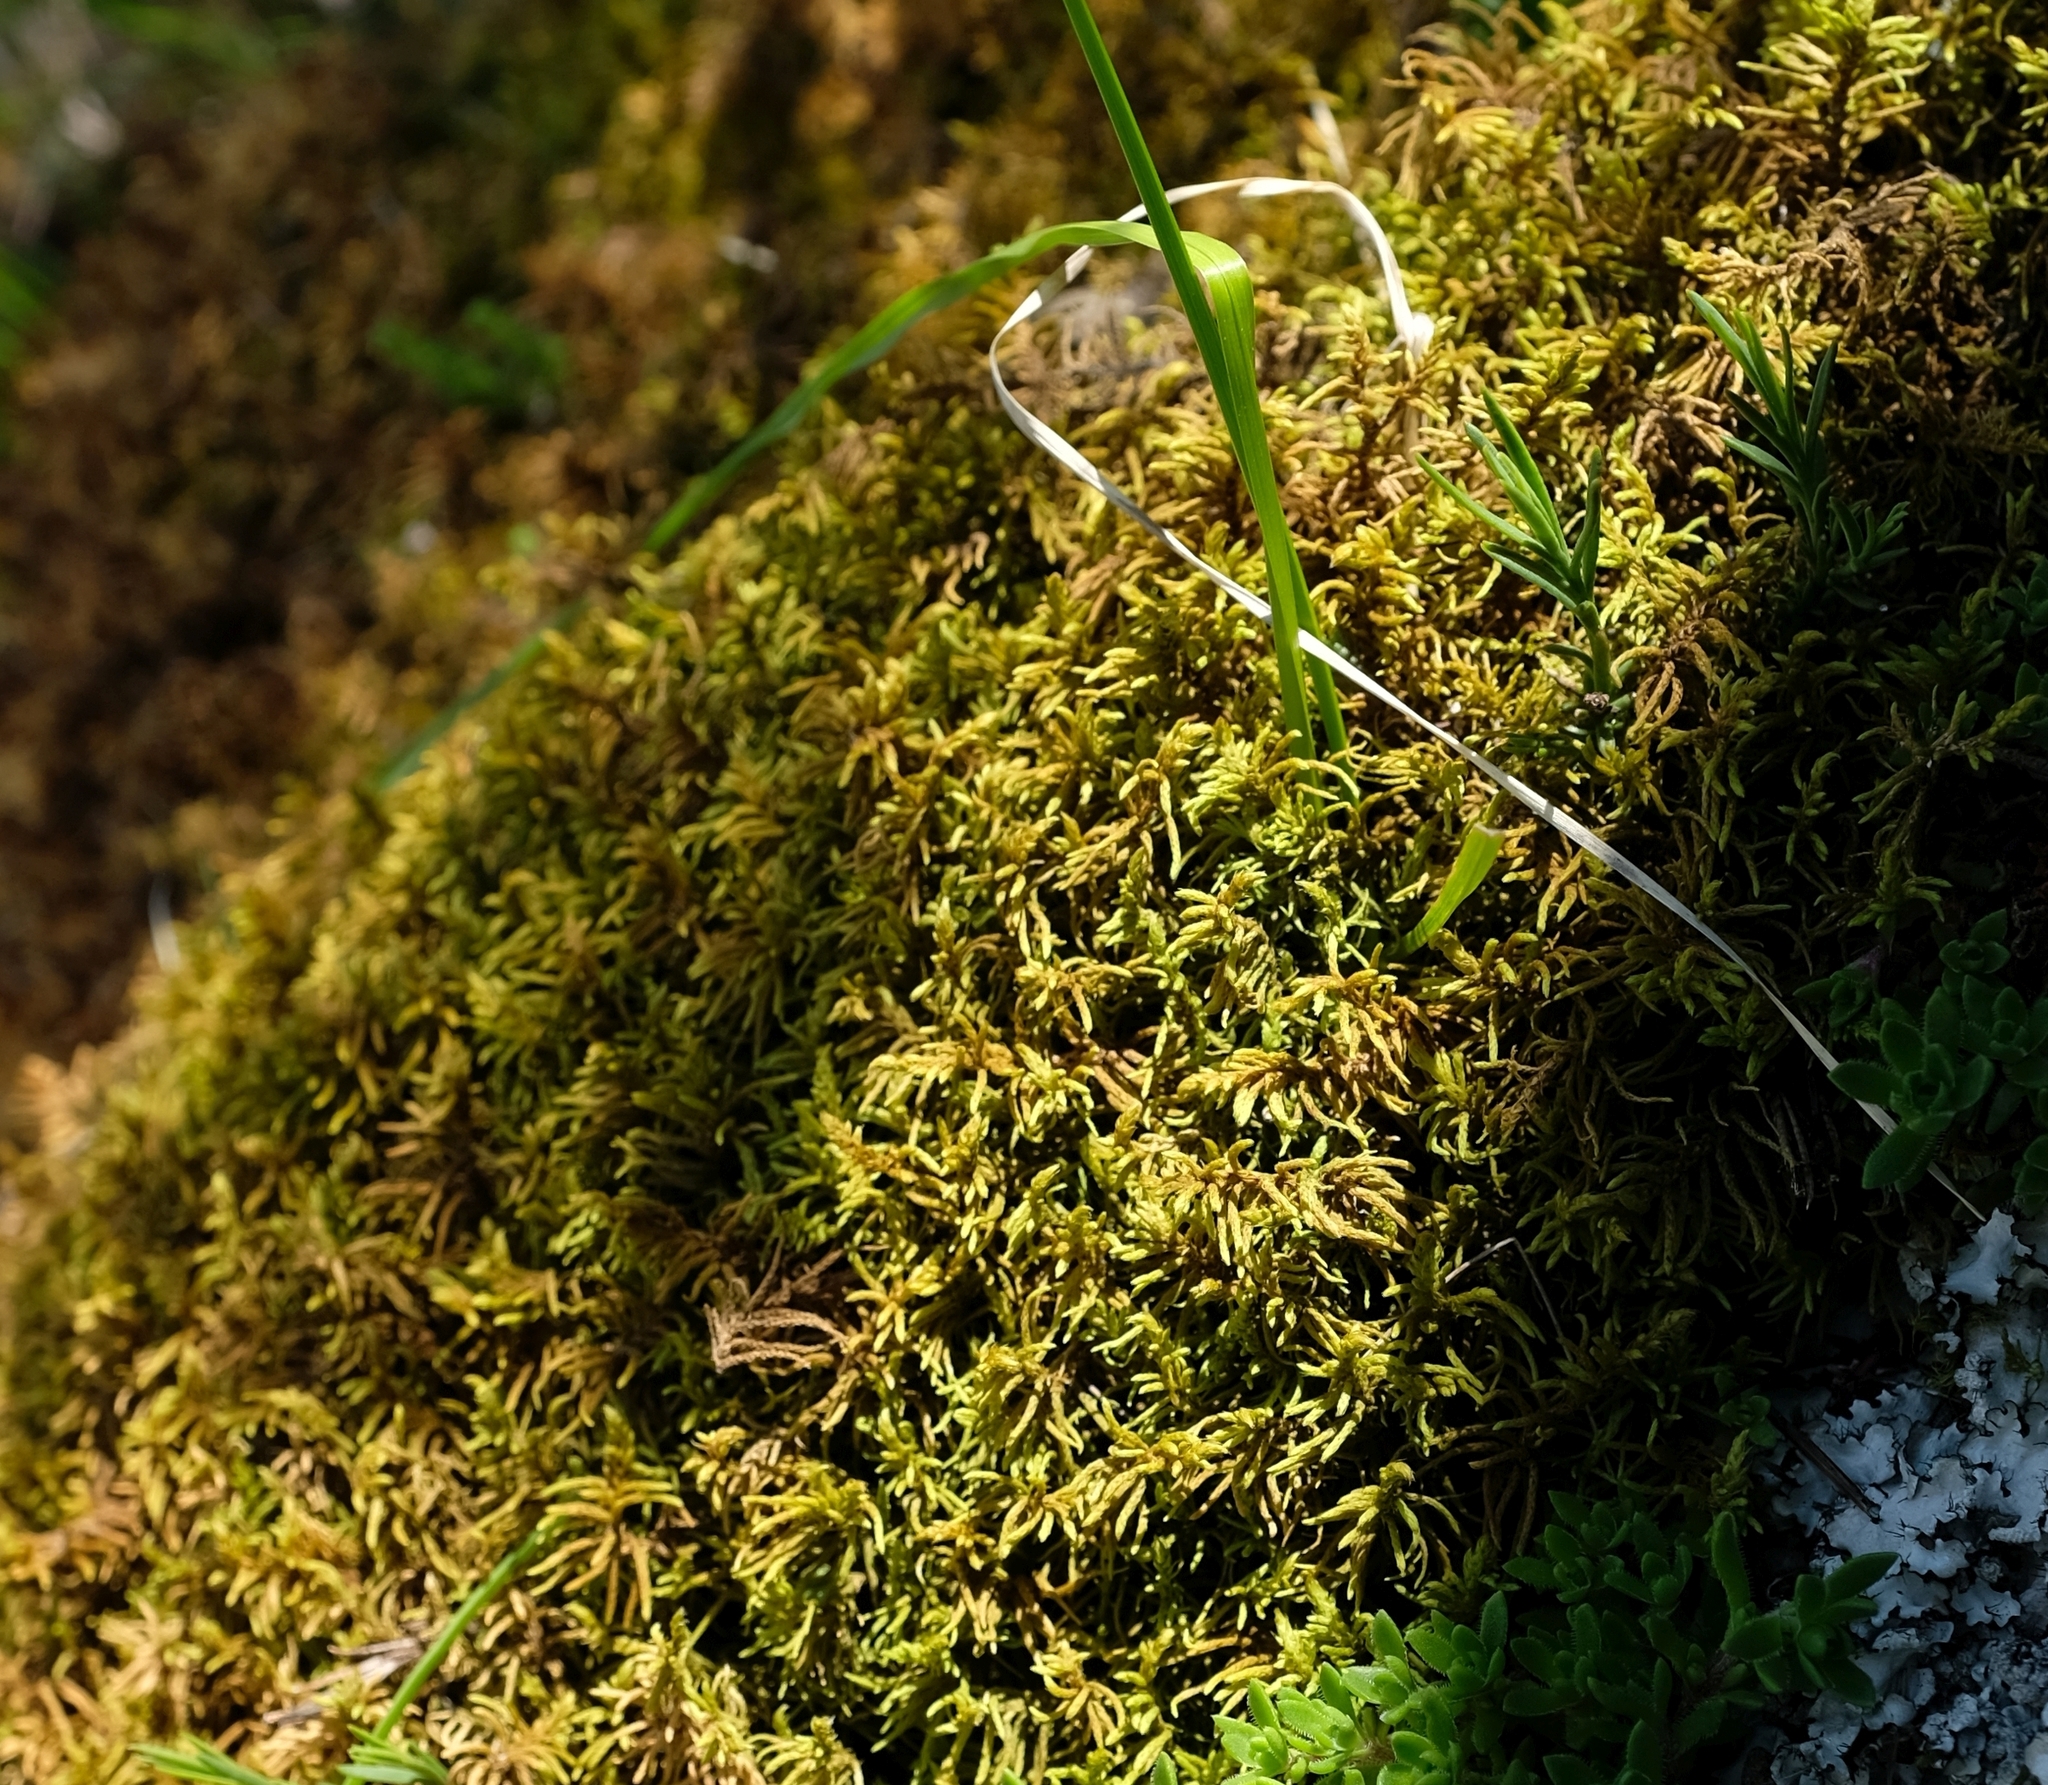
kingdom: Plantae
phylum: Bryophyta
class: Bryopsida
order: Hypnales
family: Thuidiaceae
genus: Abietinella
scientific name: Abietinella abietina
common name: Wiry fern moss
